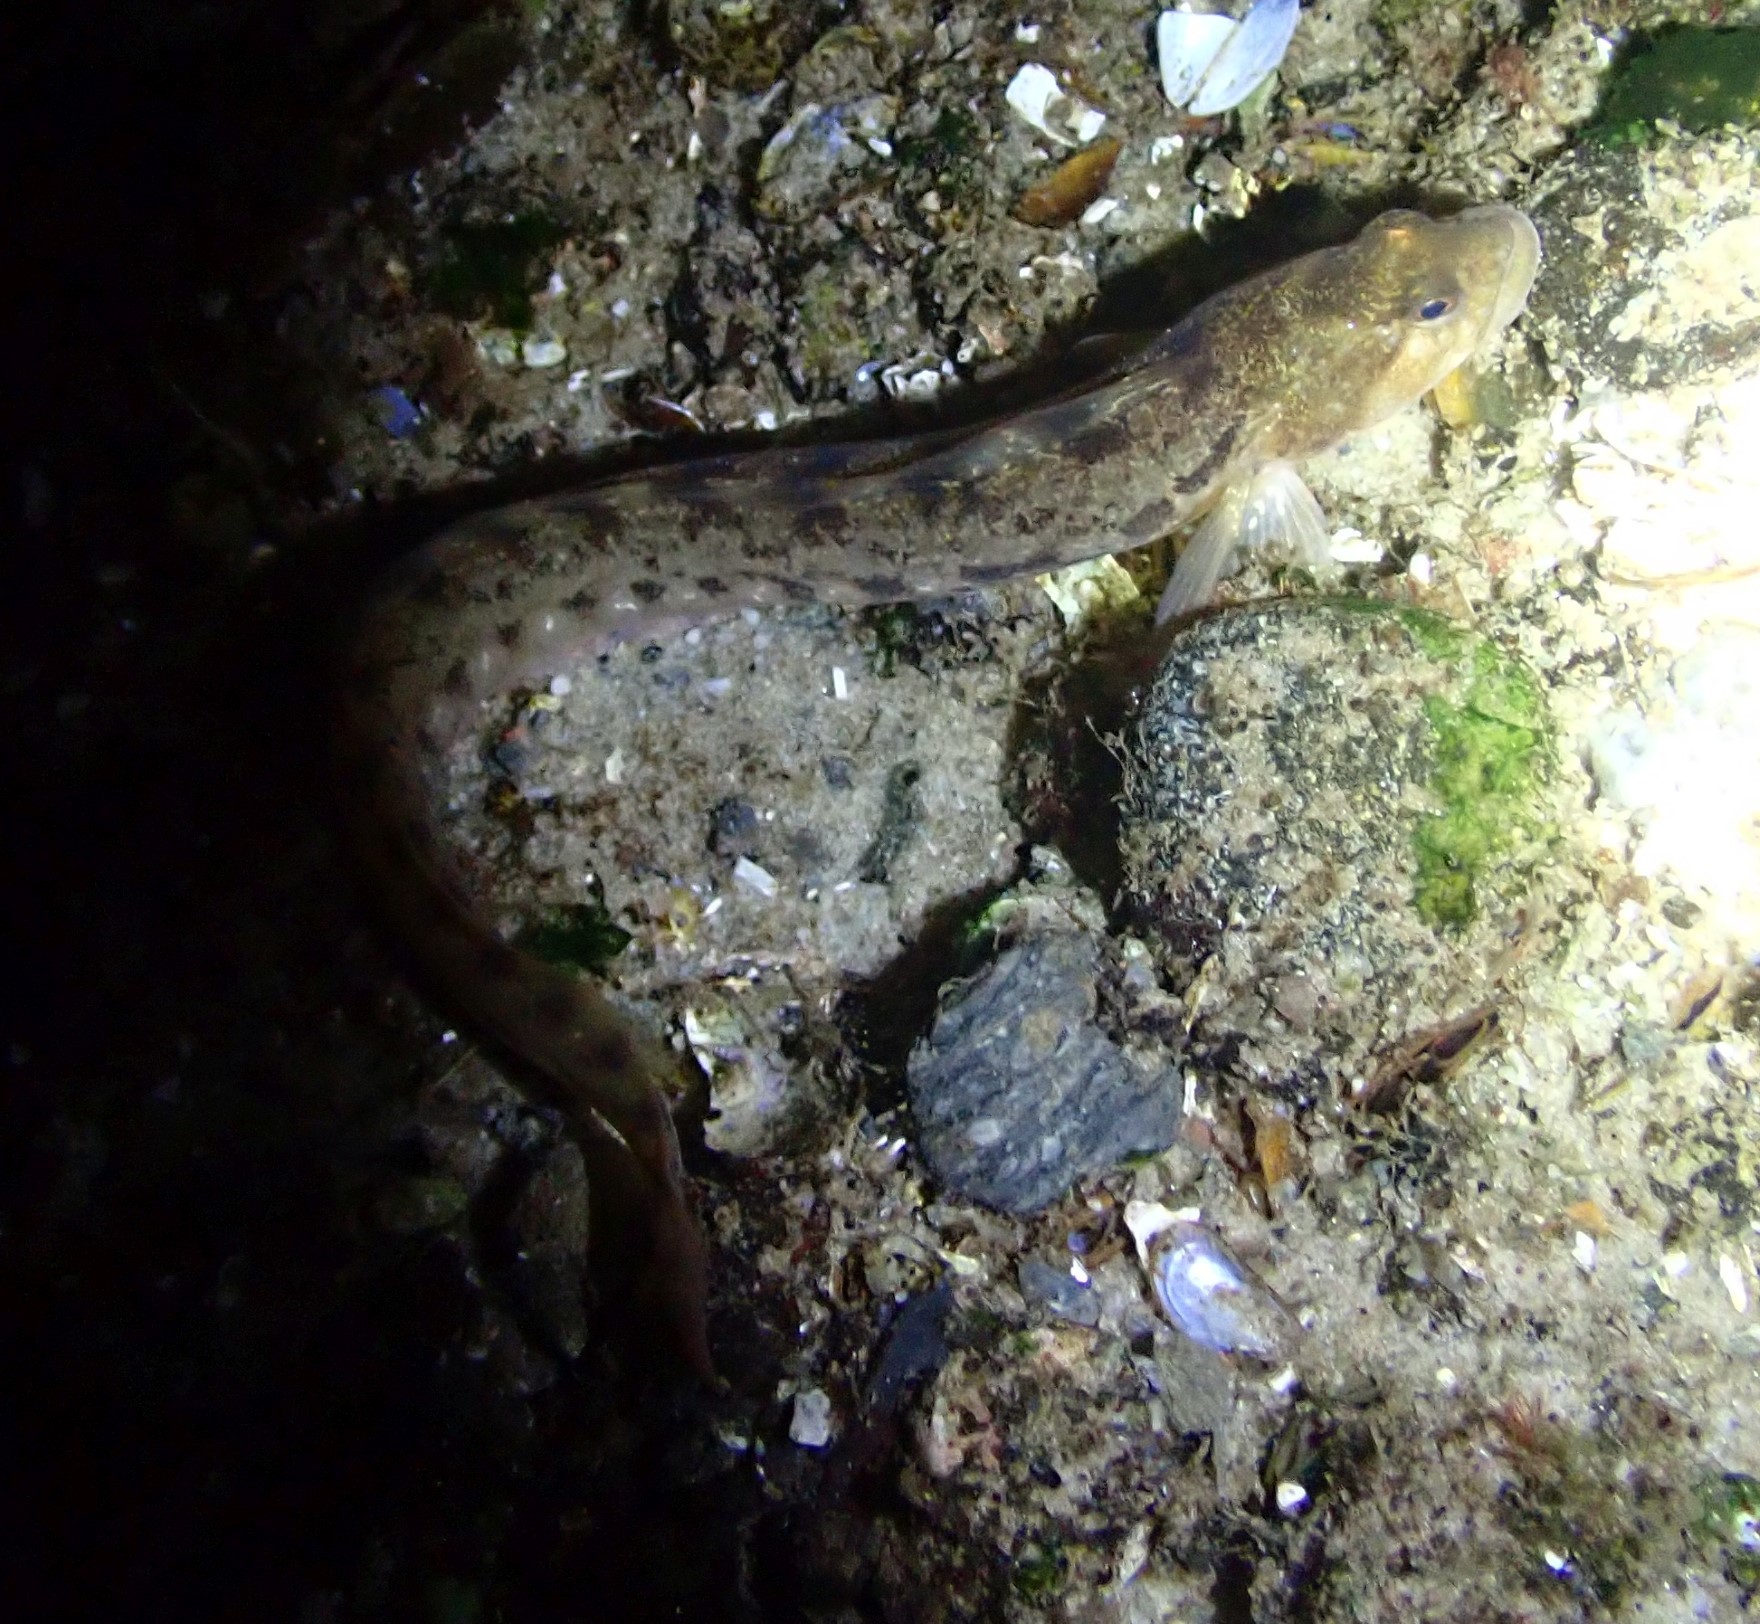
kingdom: Animalia
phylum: Chordata
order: Perciformes
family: Zoarcidae
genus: Zoarces
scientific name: Zoarces viviparus
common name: Viviparous blenny
